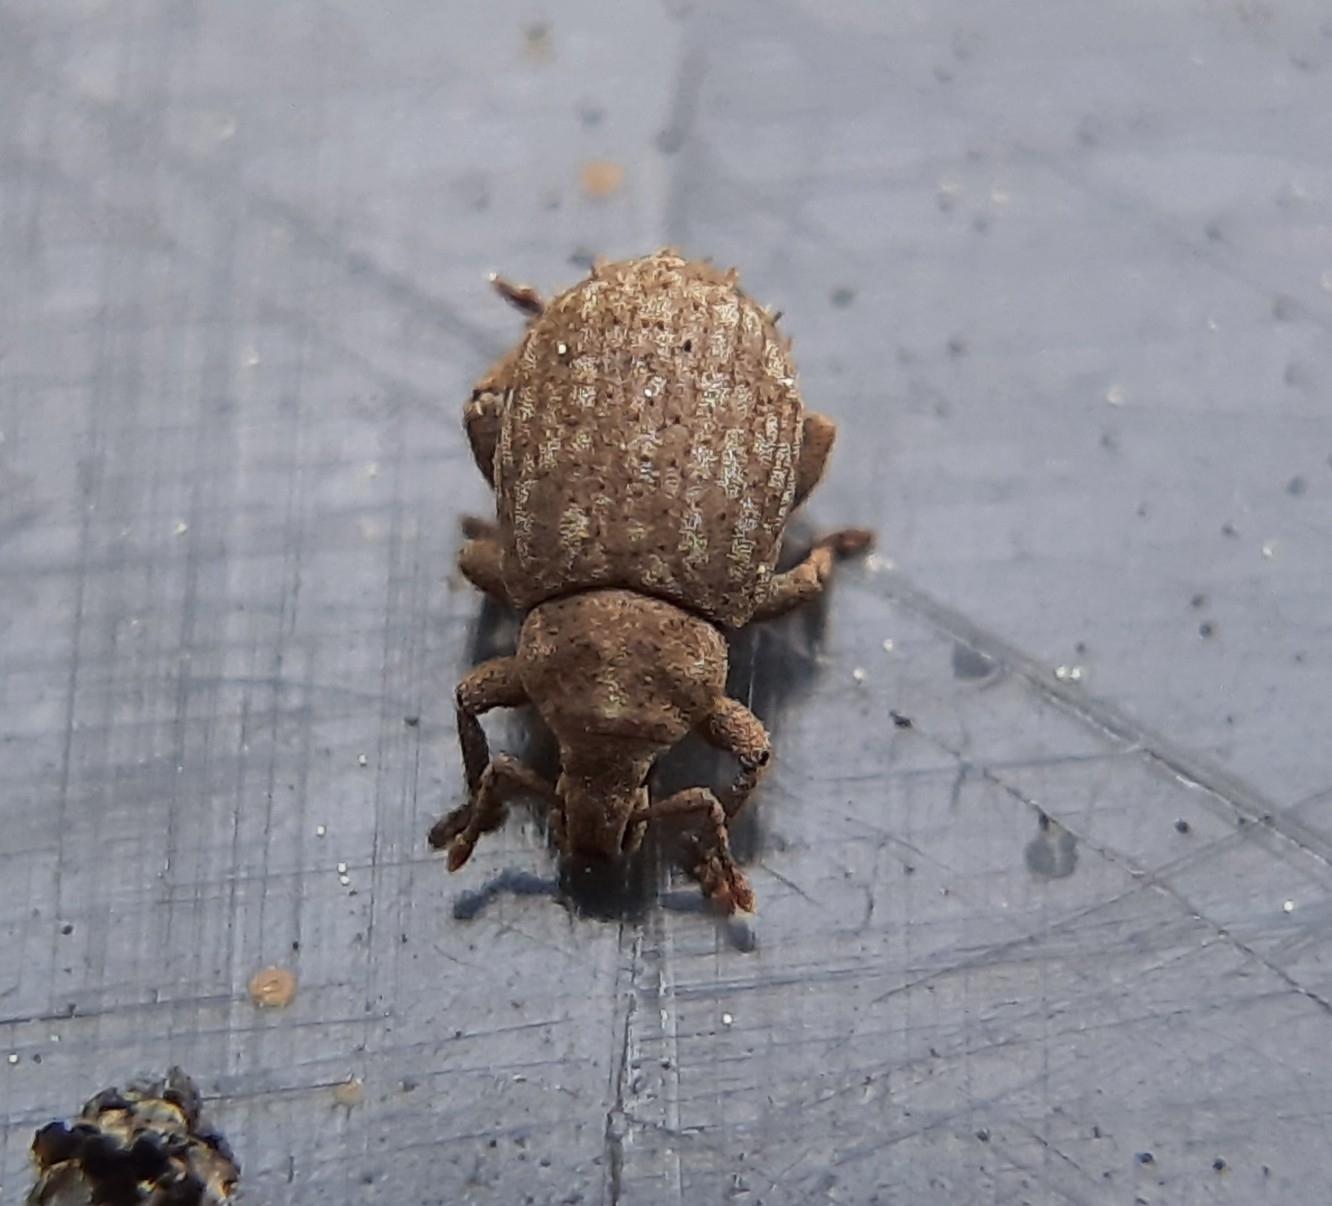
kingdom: Animalia
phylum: Arthropoda
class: Insecta
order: Coleoptera
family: Curculionidae
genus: Romualdius
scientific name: Romualdius scaber
